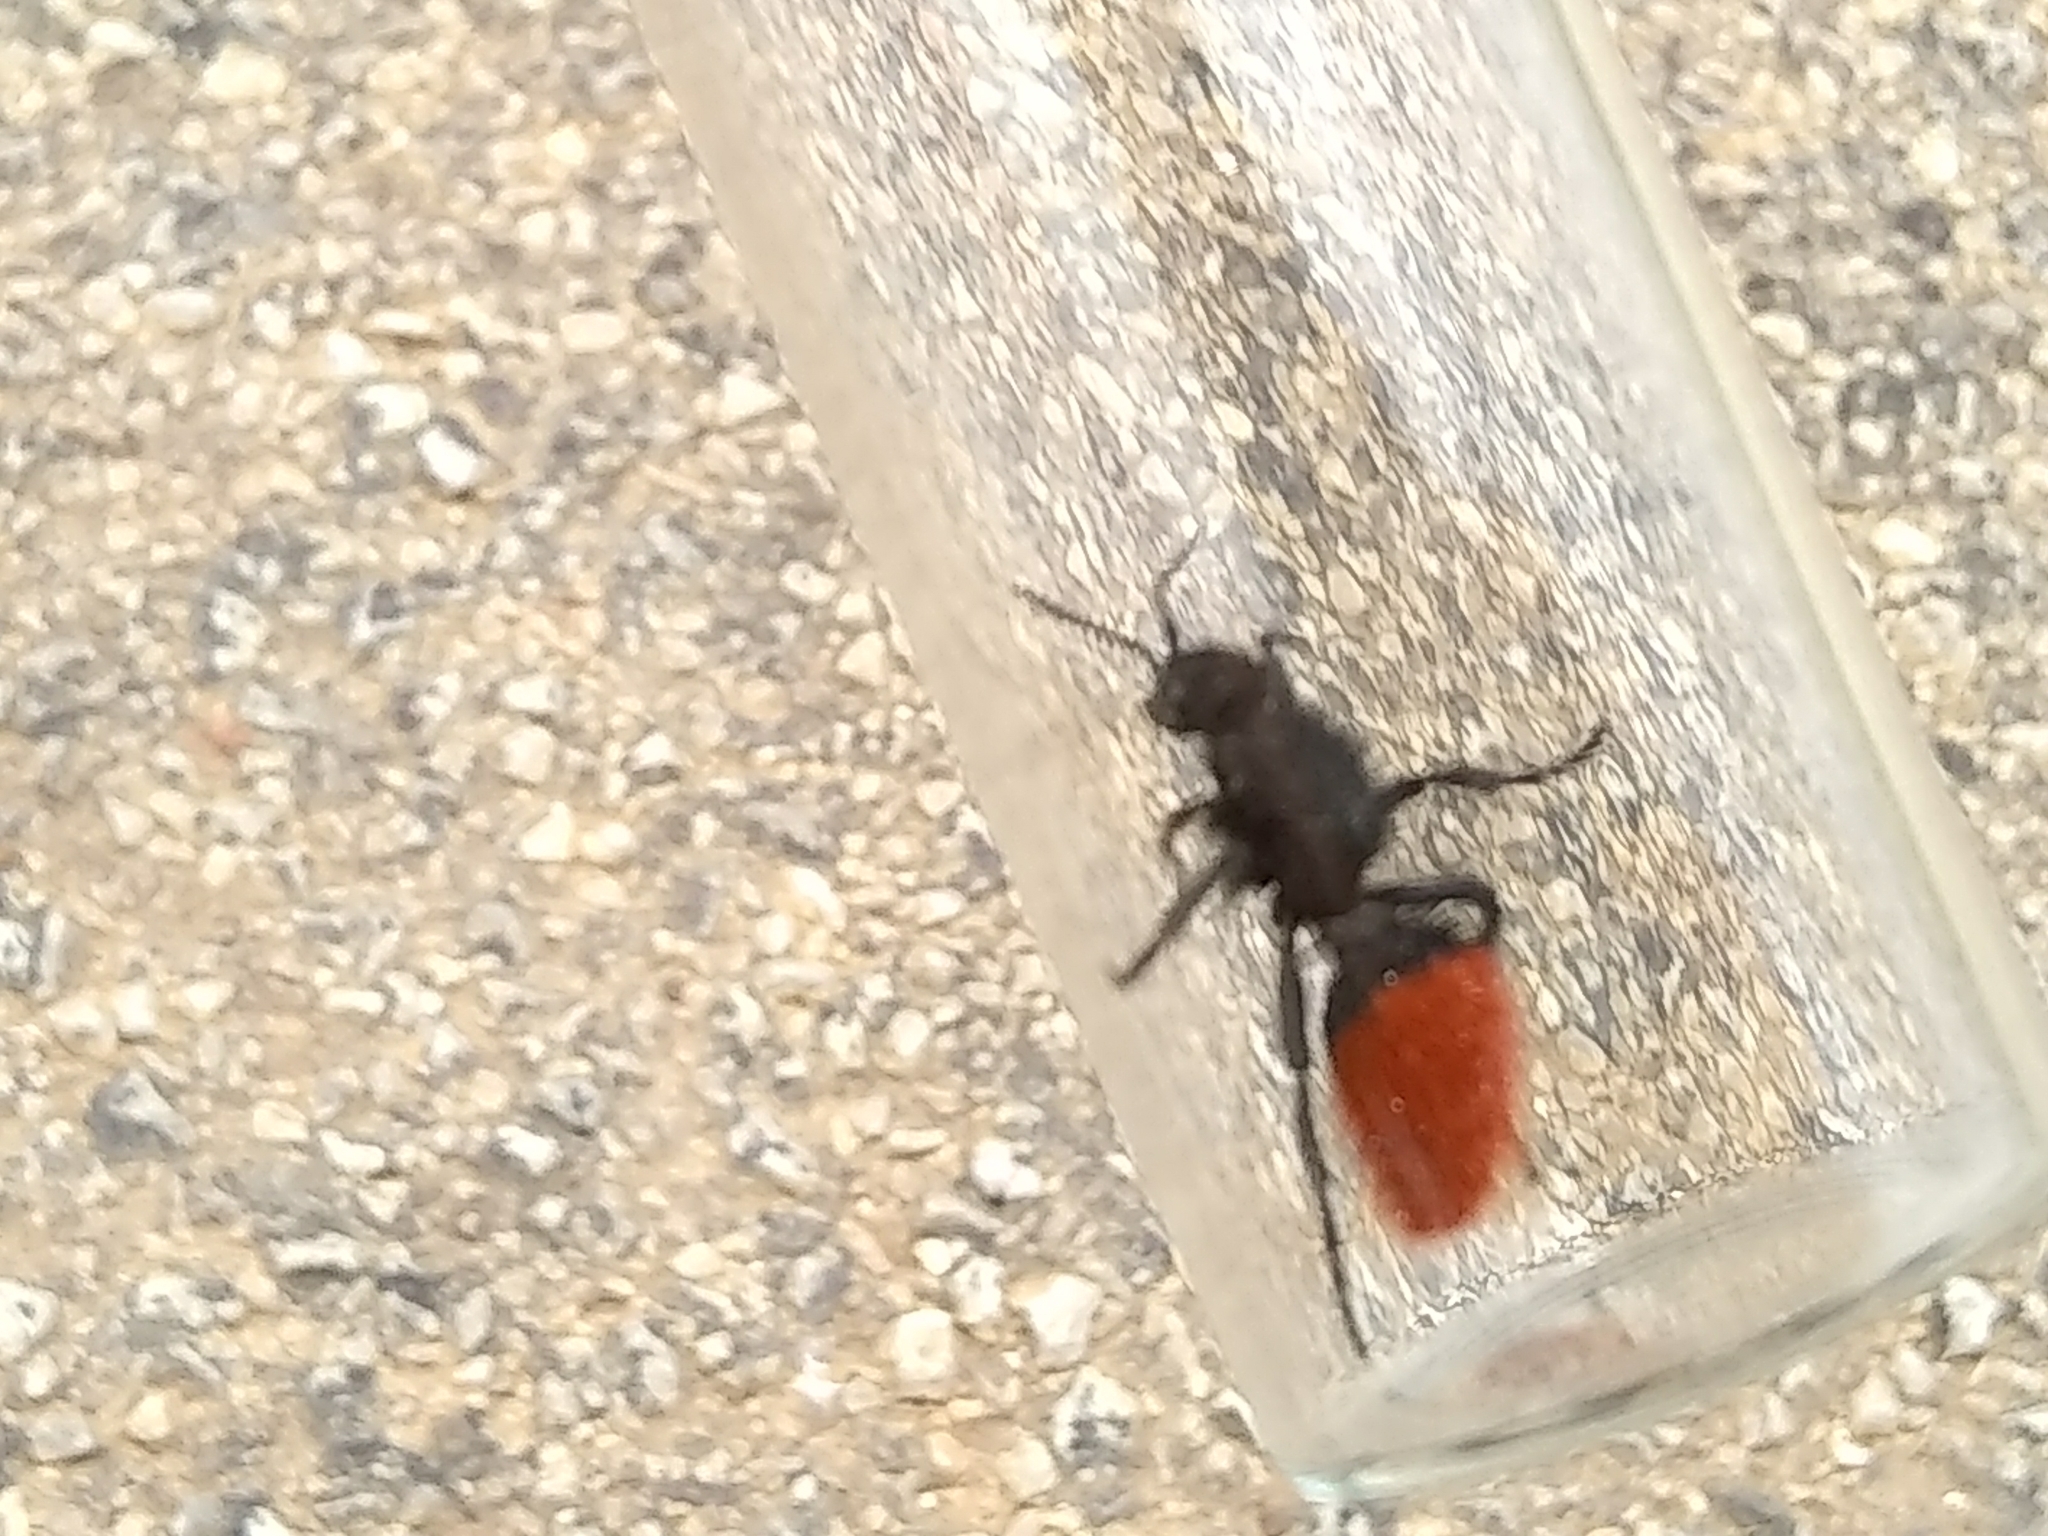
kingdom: Animalia
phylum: Arthropoda
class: Insecta
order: Hymenoptera
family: Mutillidae
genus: Dasymutilla
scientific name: Dasymutilla
